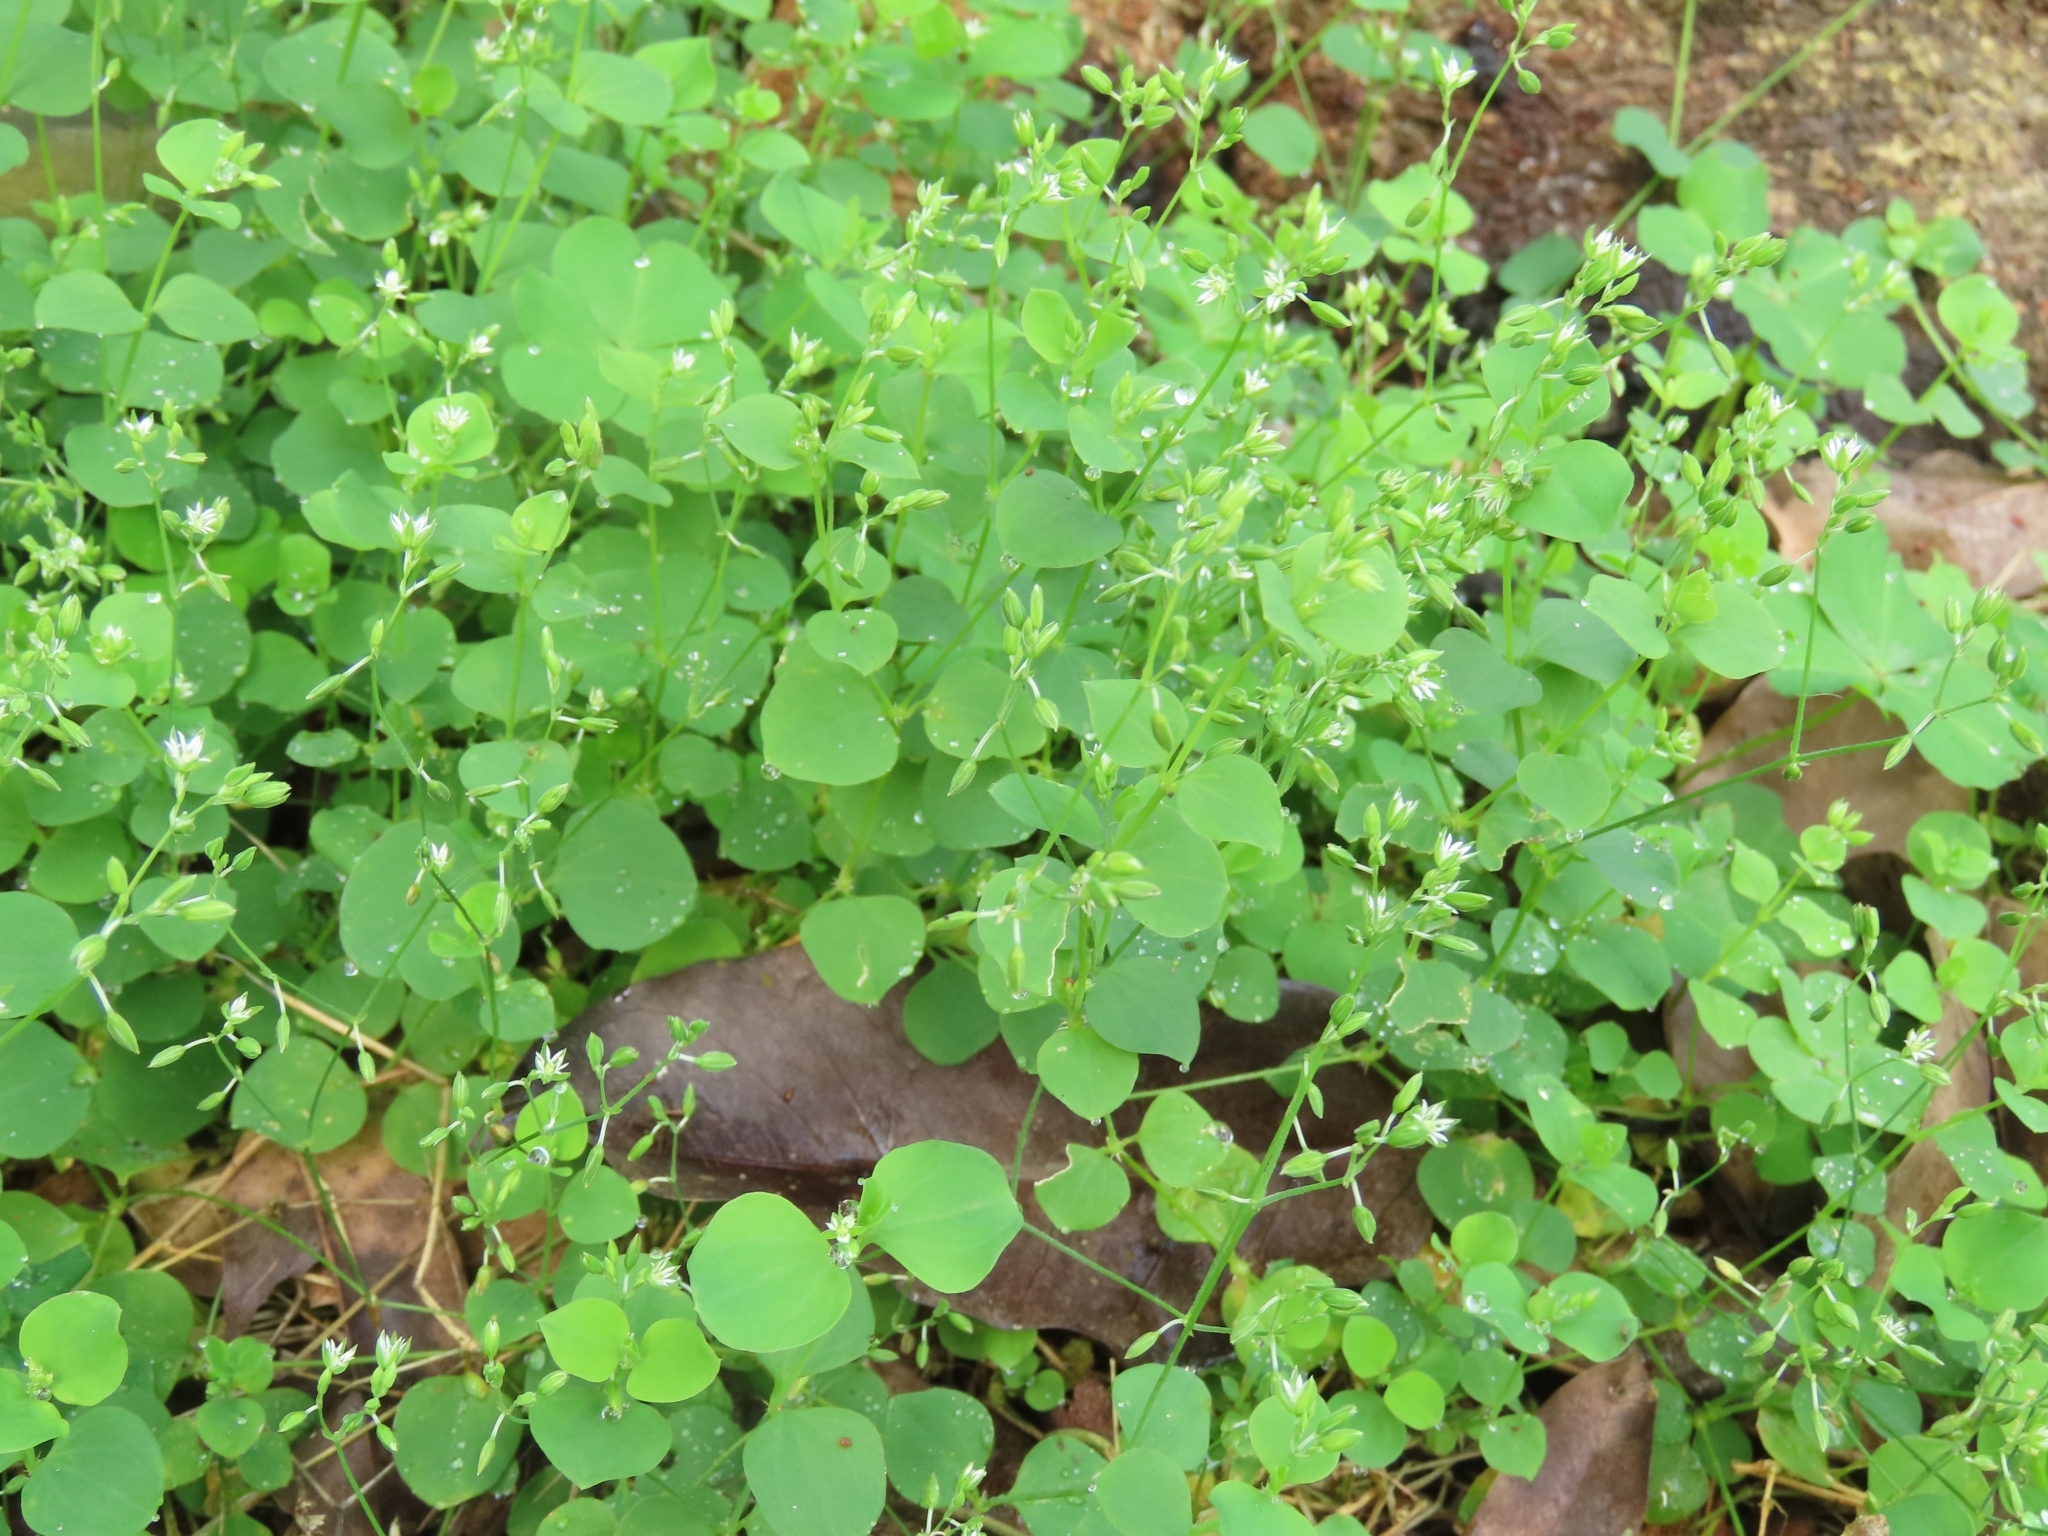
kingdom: Plantae
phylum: Tracheophyta
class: Magnoliopsida
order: Caryophyllales
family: Caryophyllaceae
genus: Drymaria
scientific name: Drymaria cordata
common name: Whitesnow
